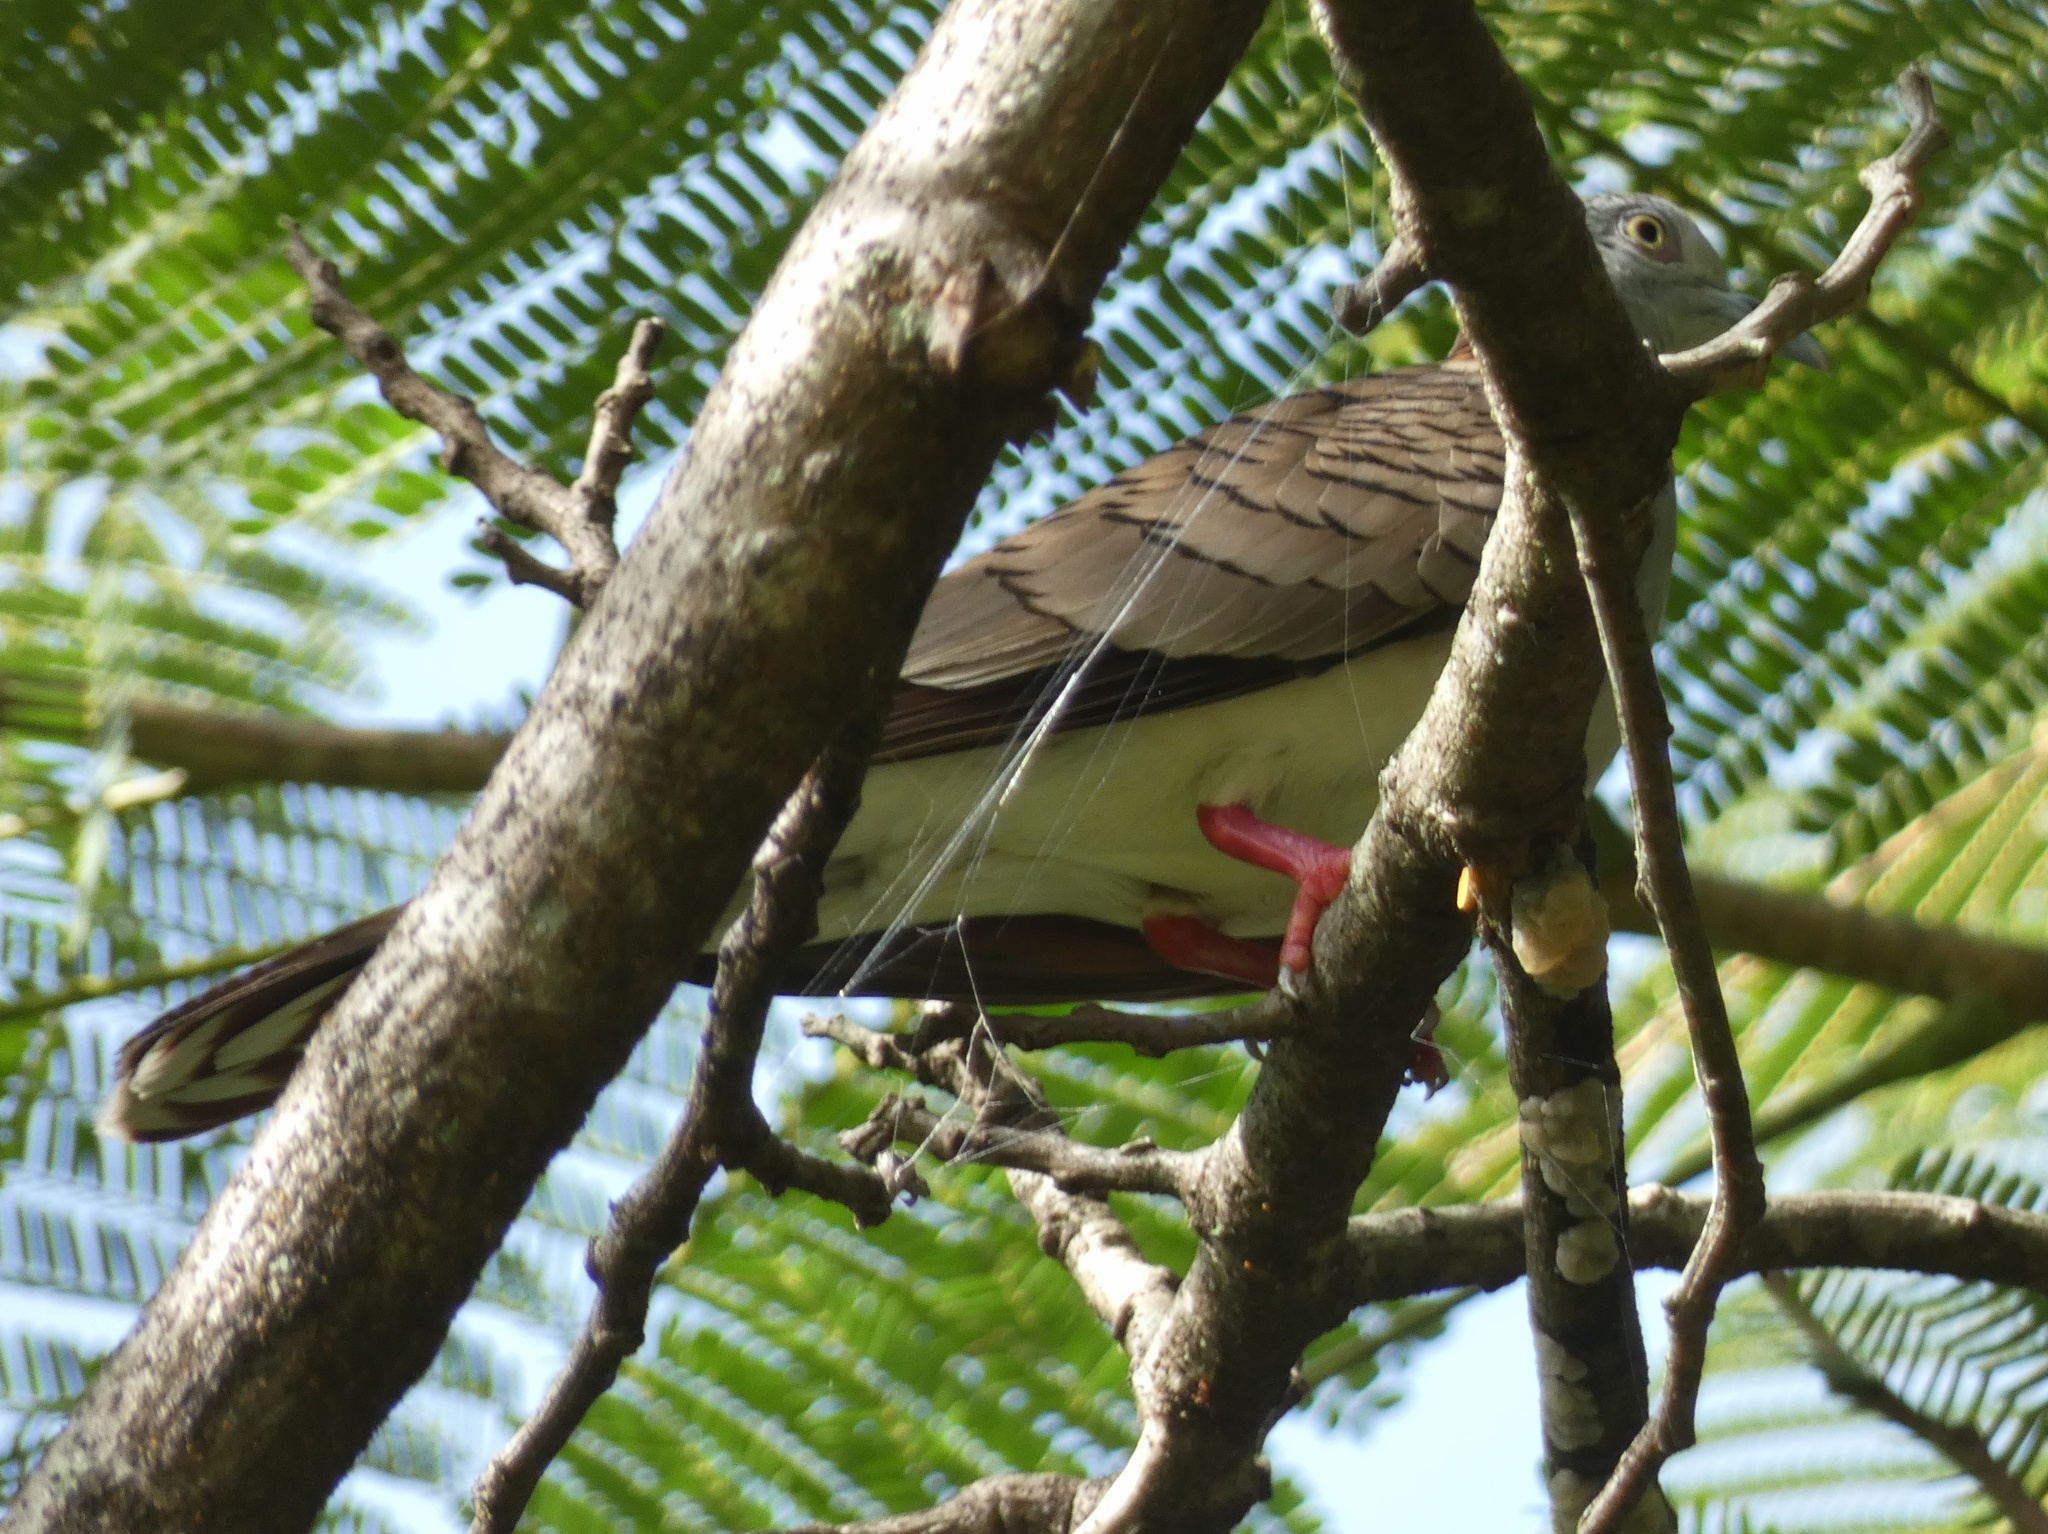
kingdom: Animalia
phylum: Chordata
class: Aves
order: Columbiformes
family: Columbidae
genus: Geopelia
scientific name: Geopelia humeralis
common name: Bar-shouldered dove
